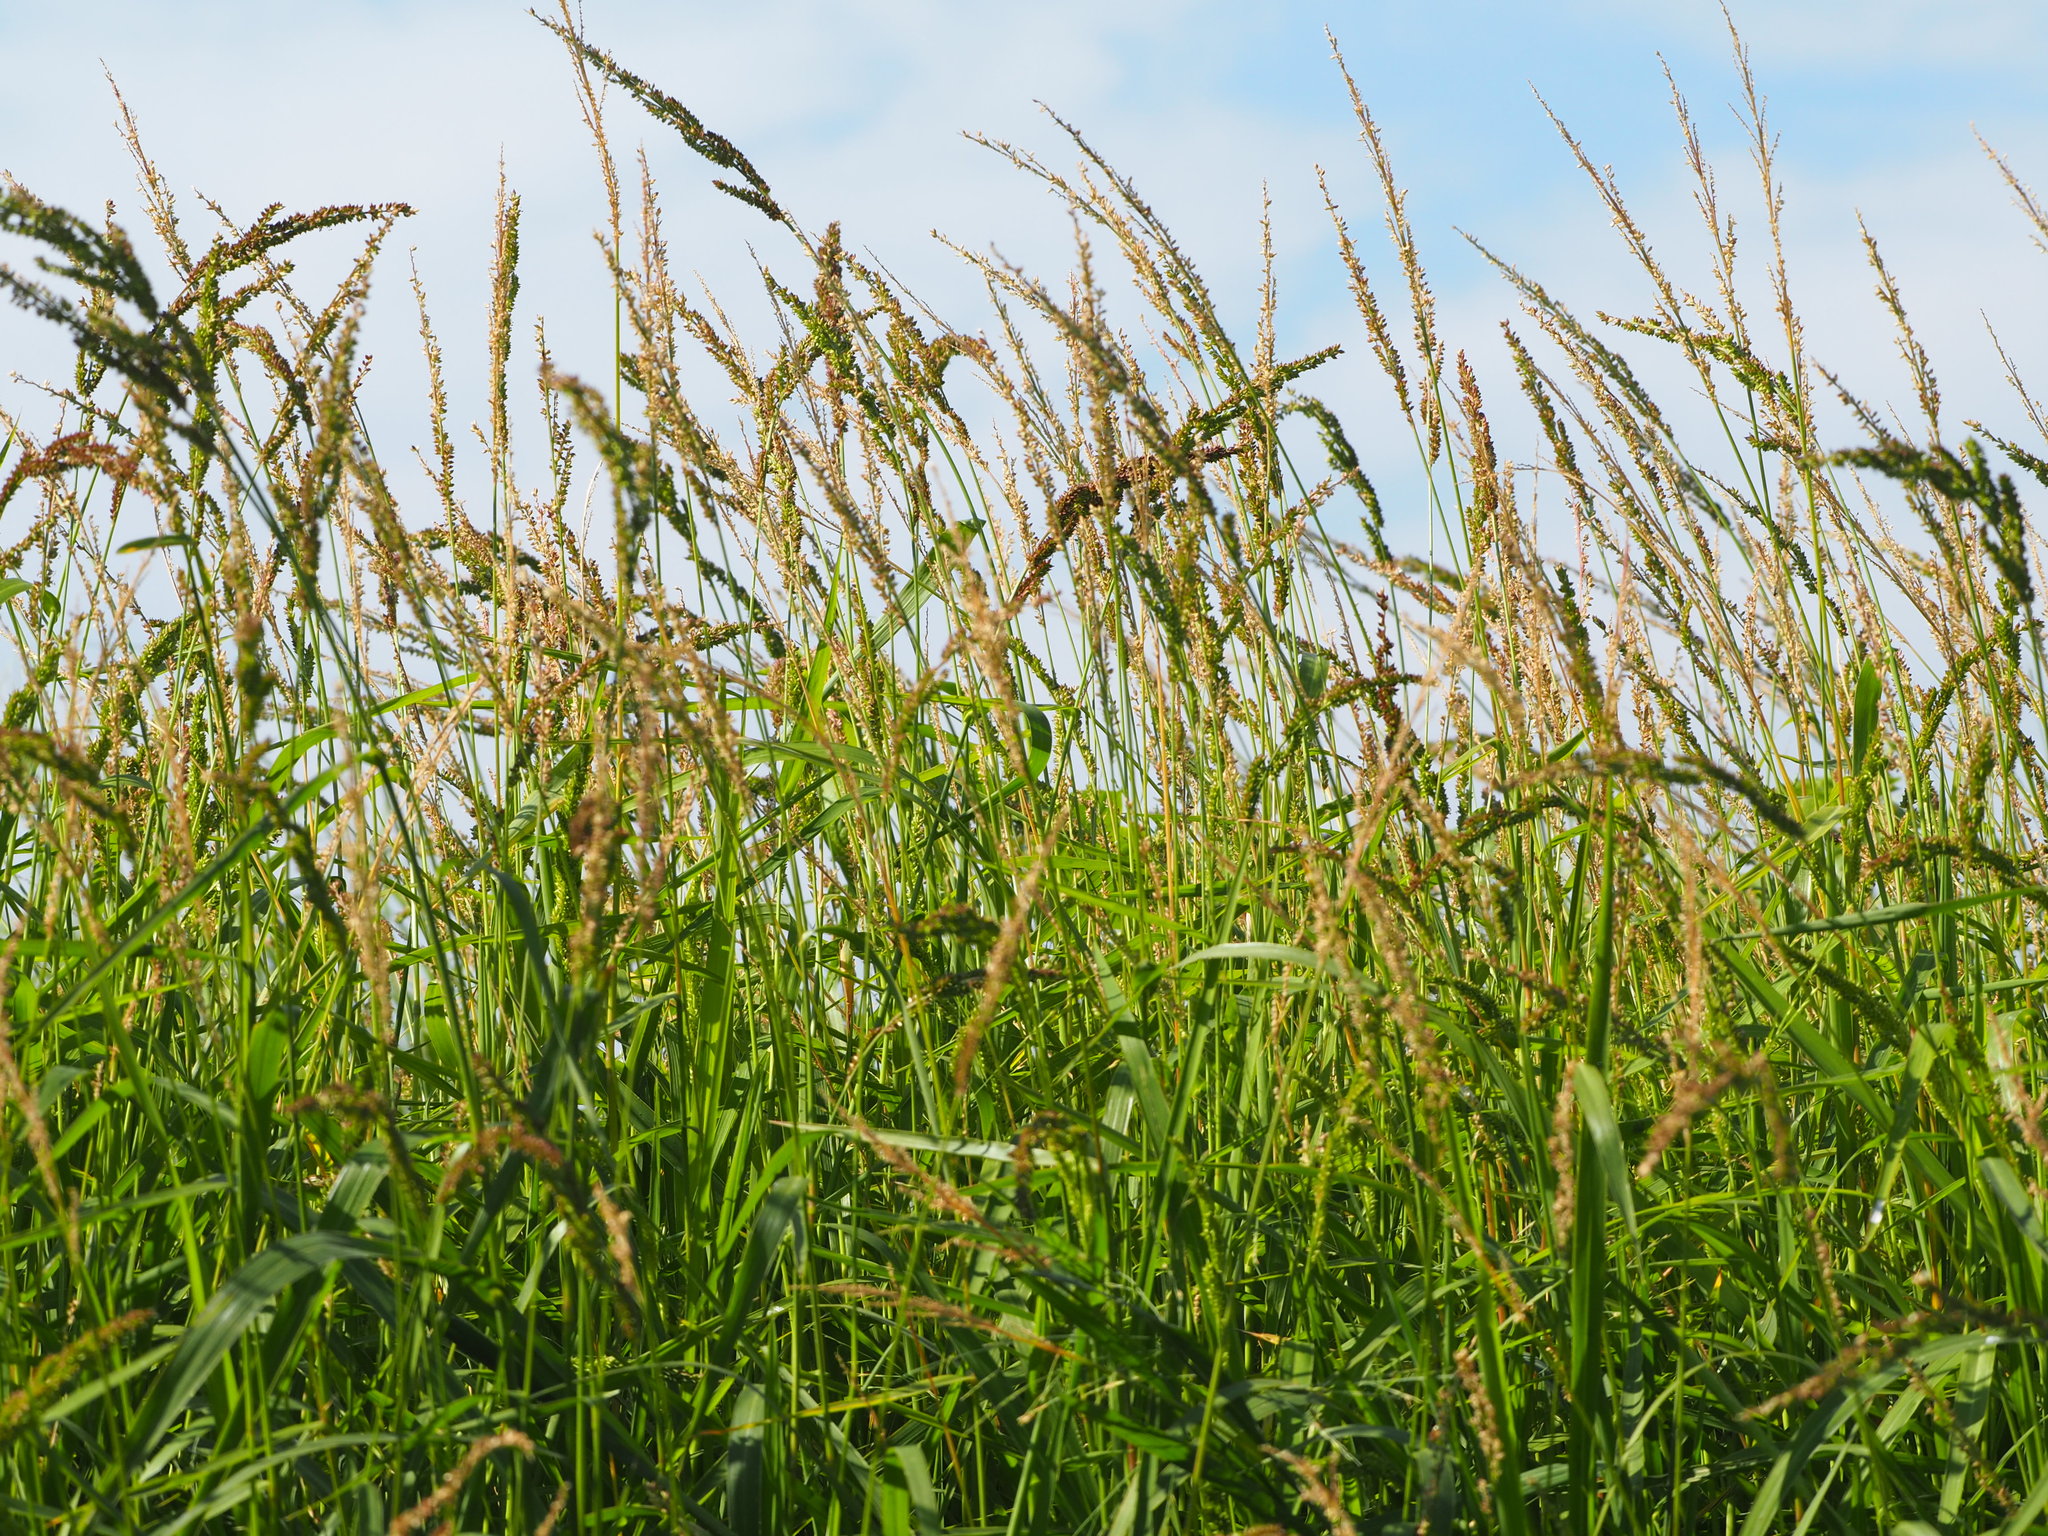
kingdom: Plantae
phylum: Tracheophyta
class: Liliopsida
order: Poales
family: Poaceae
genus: Echinochloa
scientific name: Echinochloa colonum
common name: Jungle rice
